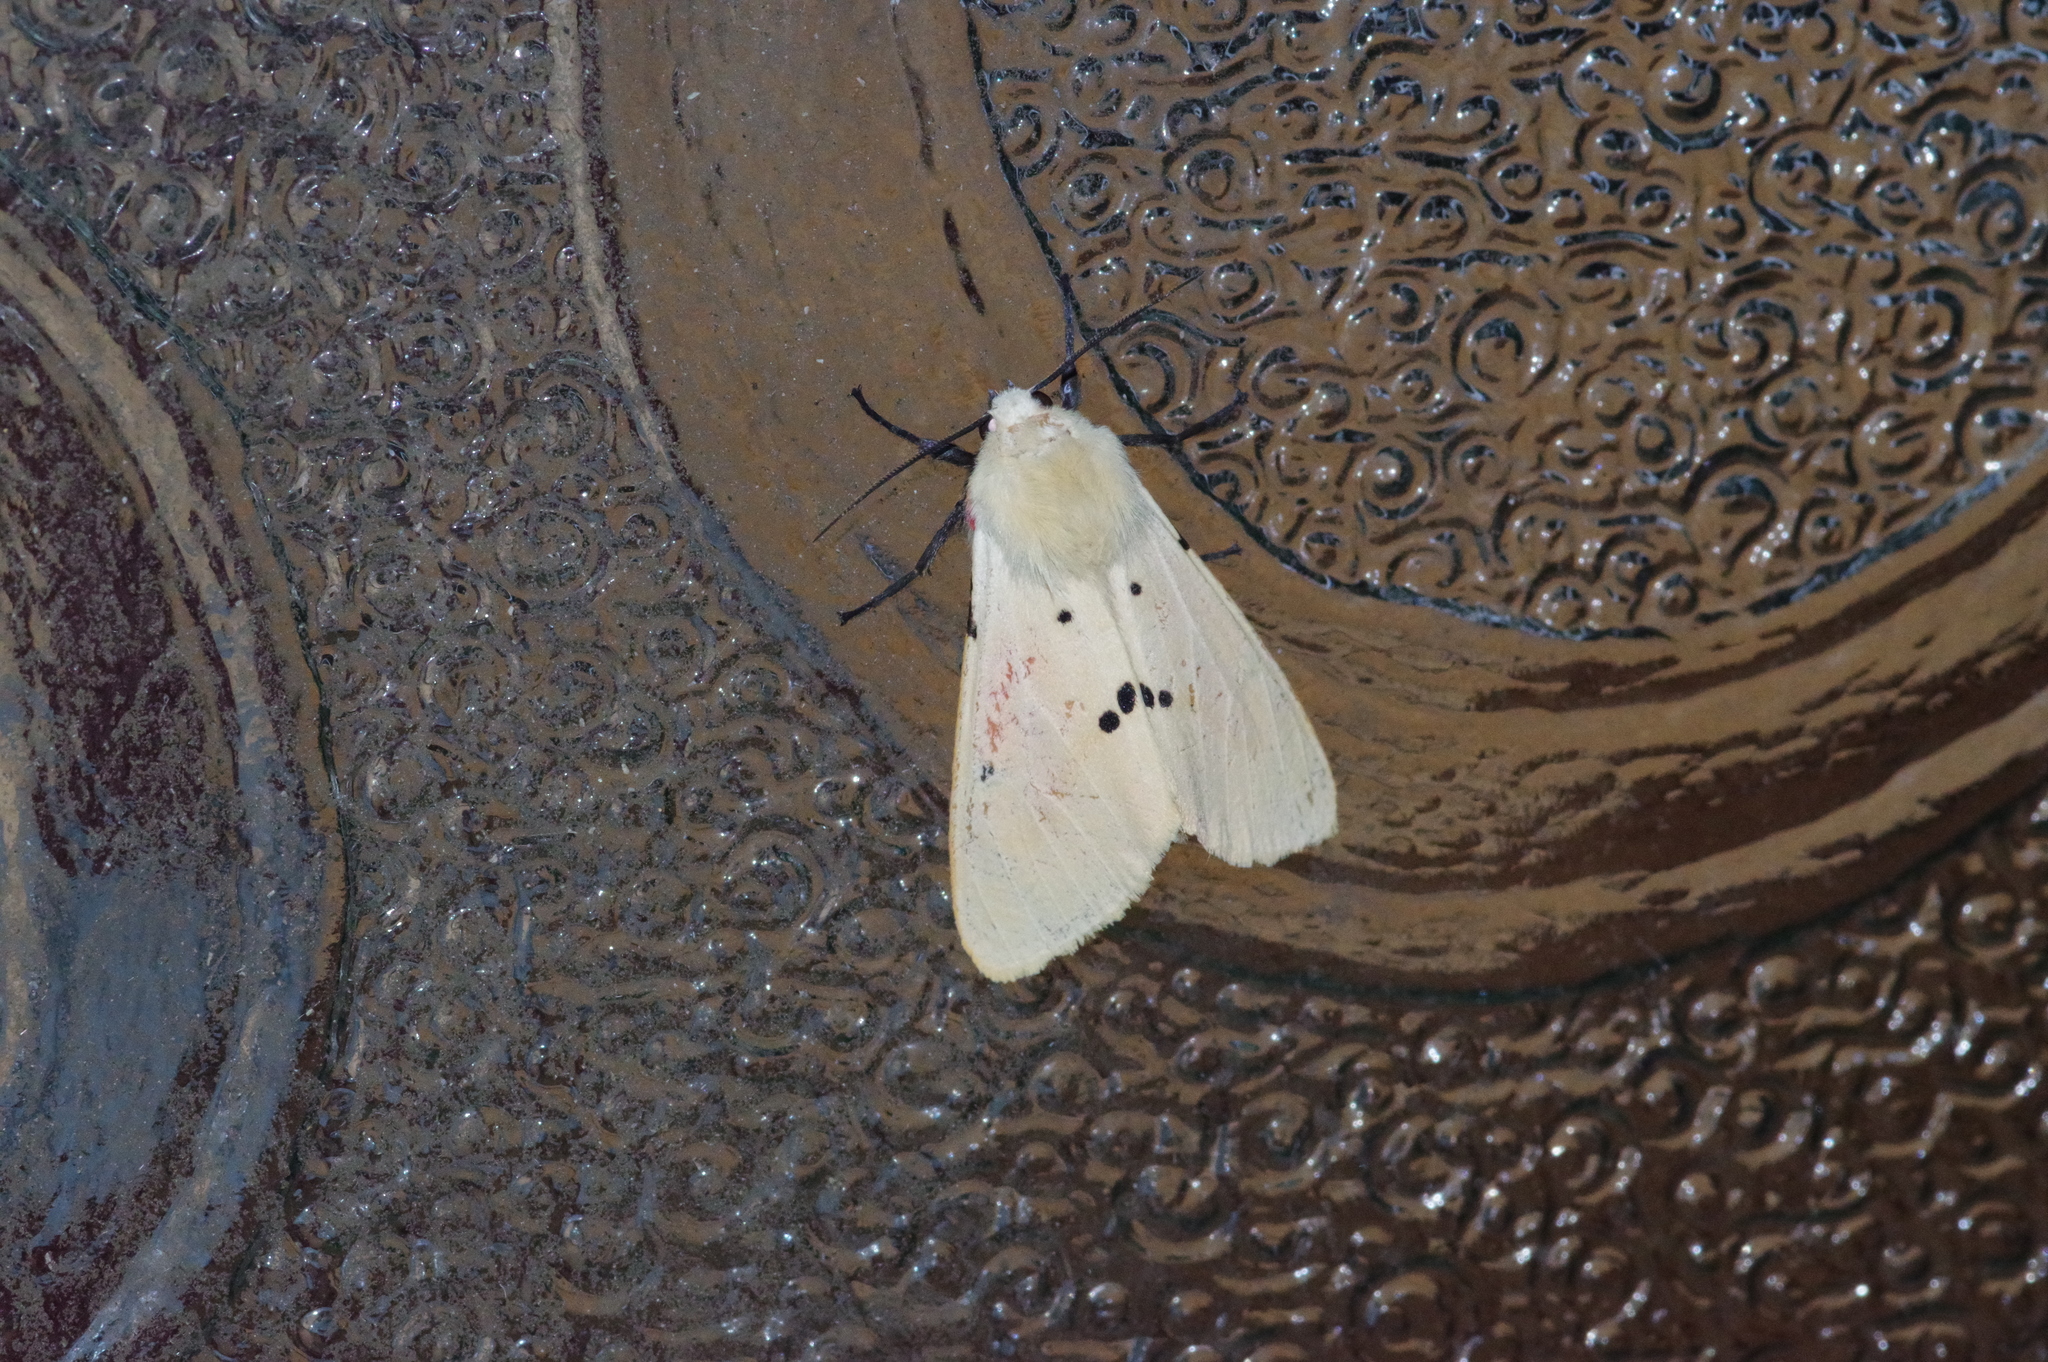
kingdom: Animalia
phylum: Arthropoda
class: Insecta
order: Lepidoptera
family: Erebidae
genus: Spilarctia
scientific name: Spilarctia seriatopunctata
